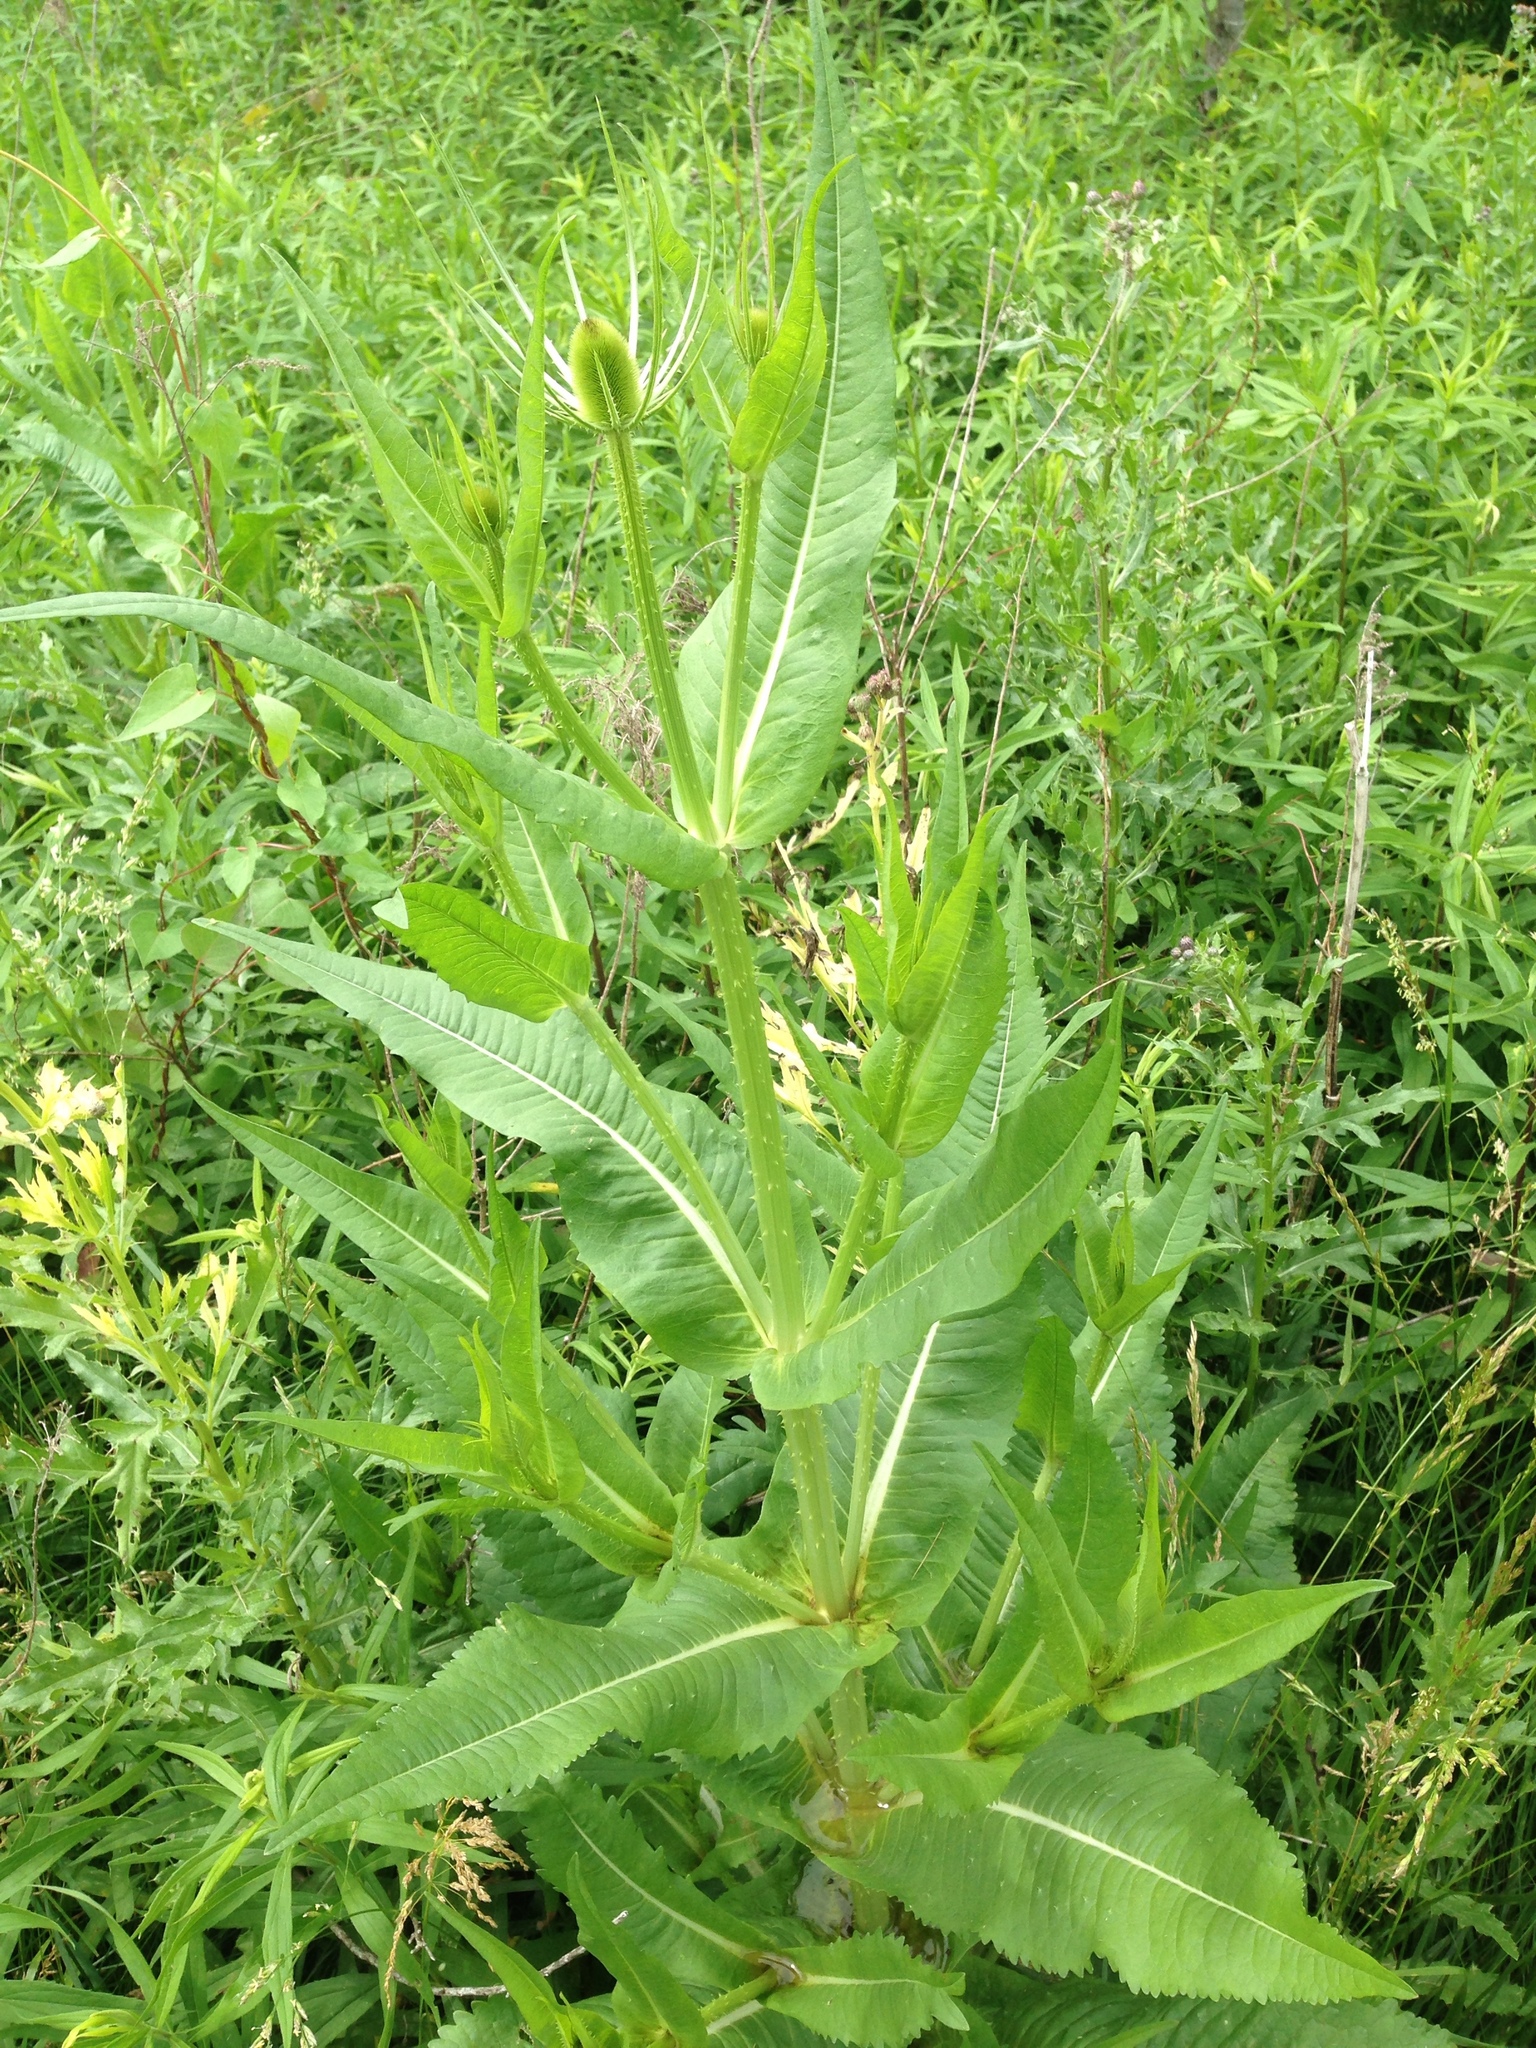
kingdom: Plantae
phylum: Tracheophyta
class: Magnoliopsida
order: Dipsacales
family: Caprifoliaceae
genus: Dipsacus
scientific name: Dipsacus fullonum
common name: Teasel
